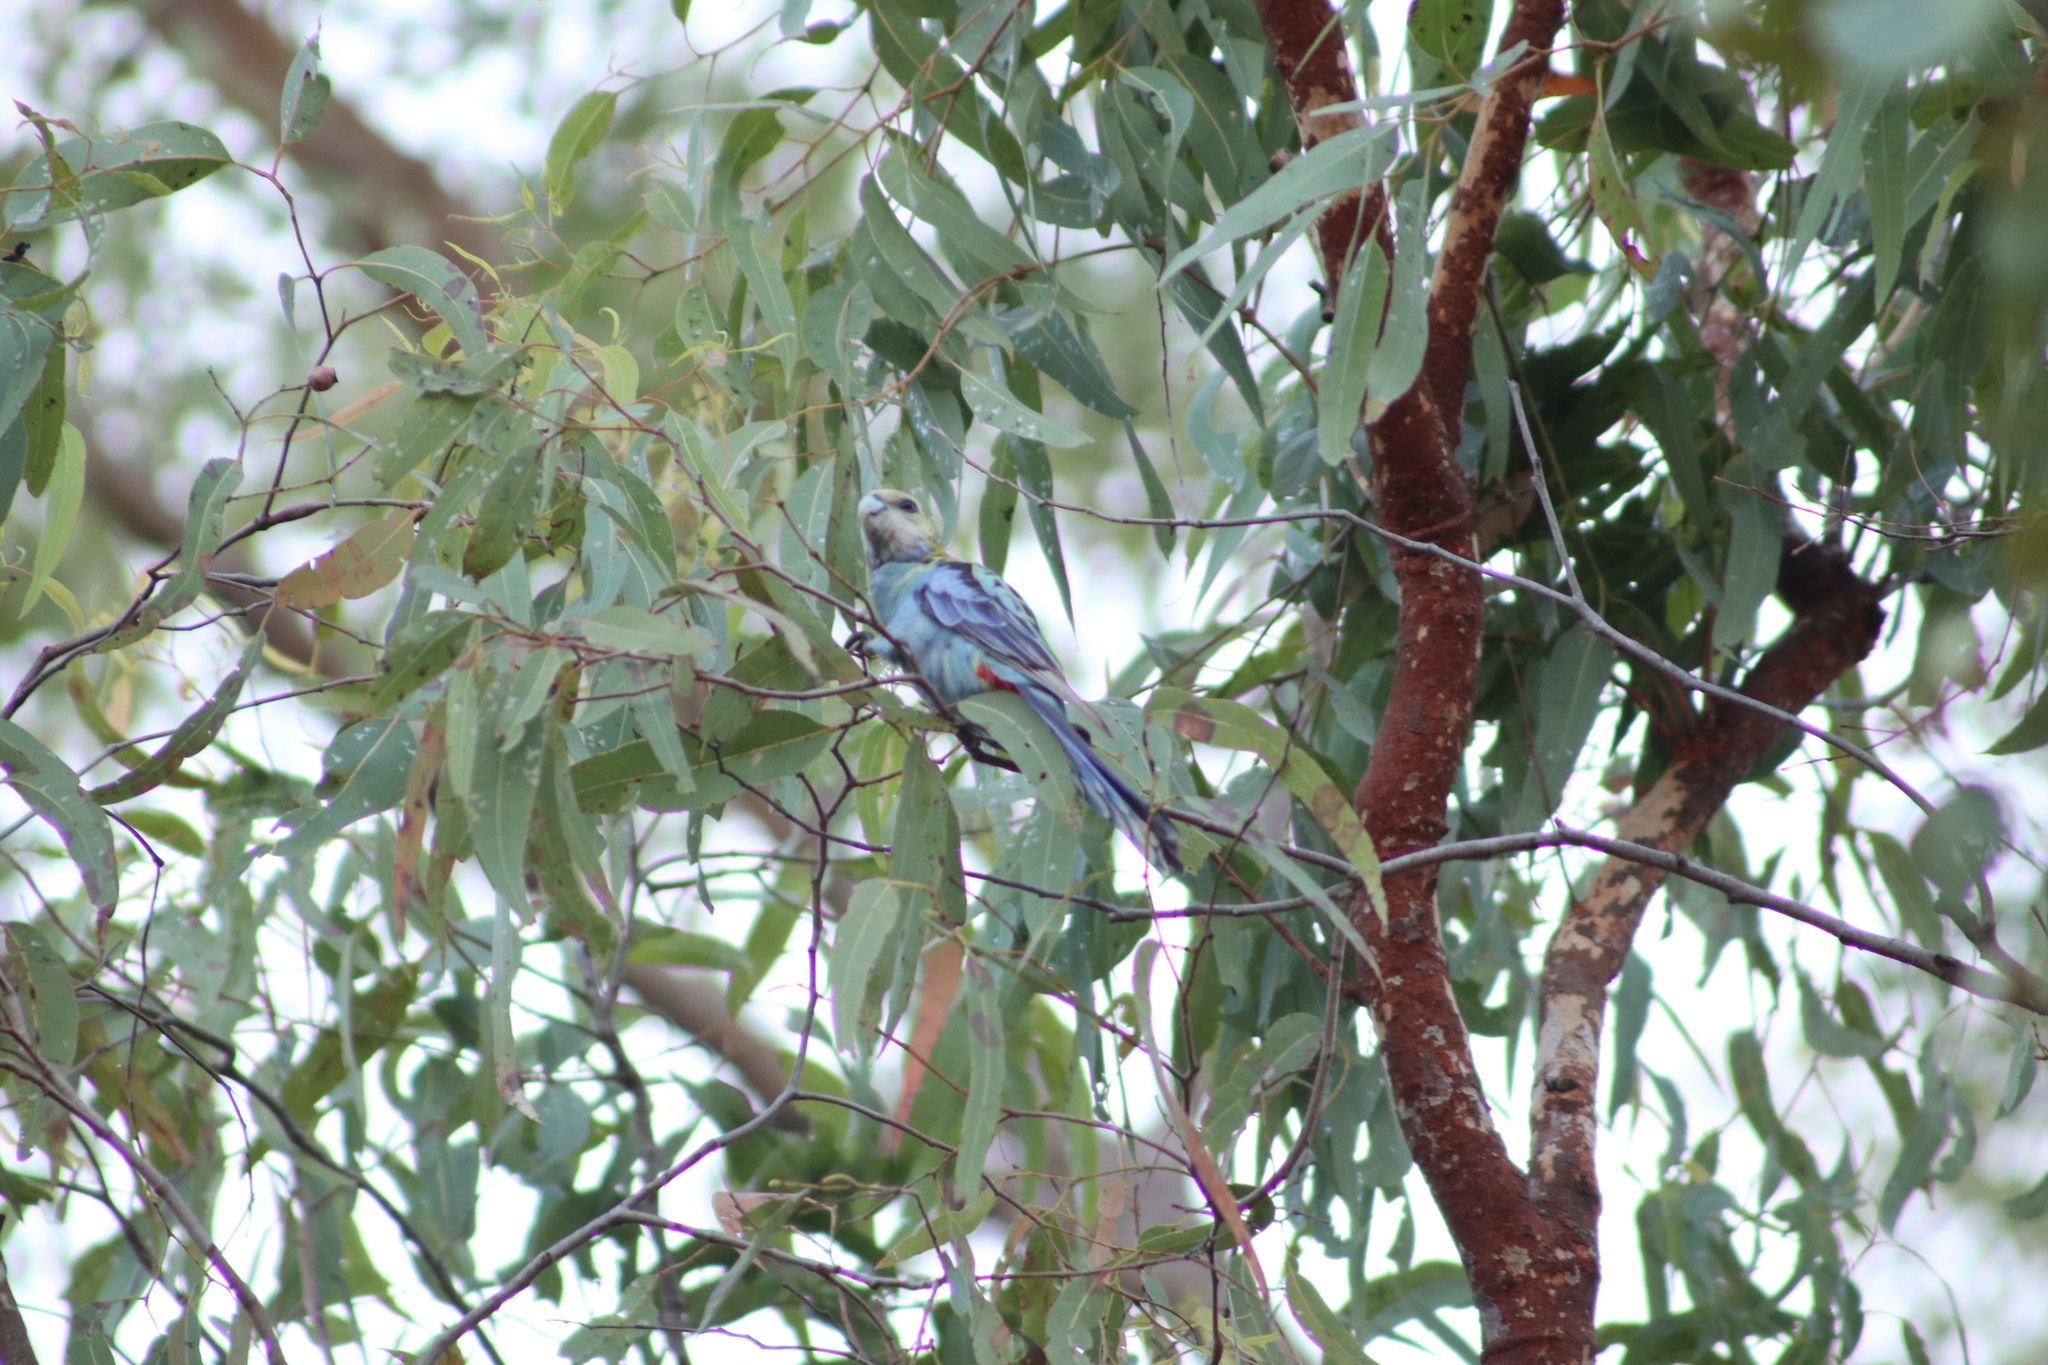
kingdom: Animalia
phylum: Chordata
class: Aves
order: Psittaciformes
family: Psittacidae
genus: Platycercus
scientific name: Platycercus adscitus
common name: Pale-headed rosella
